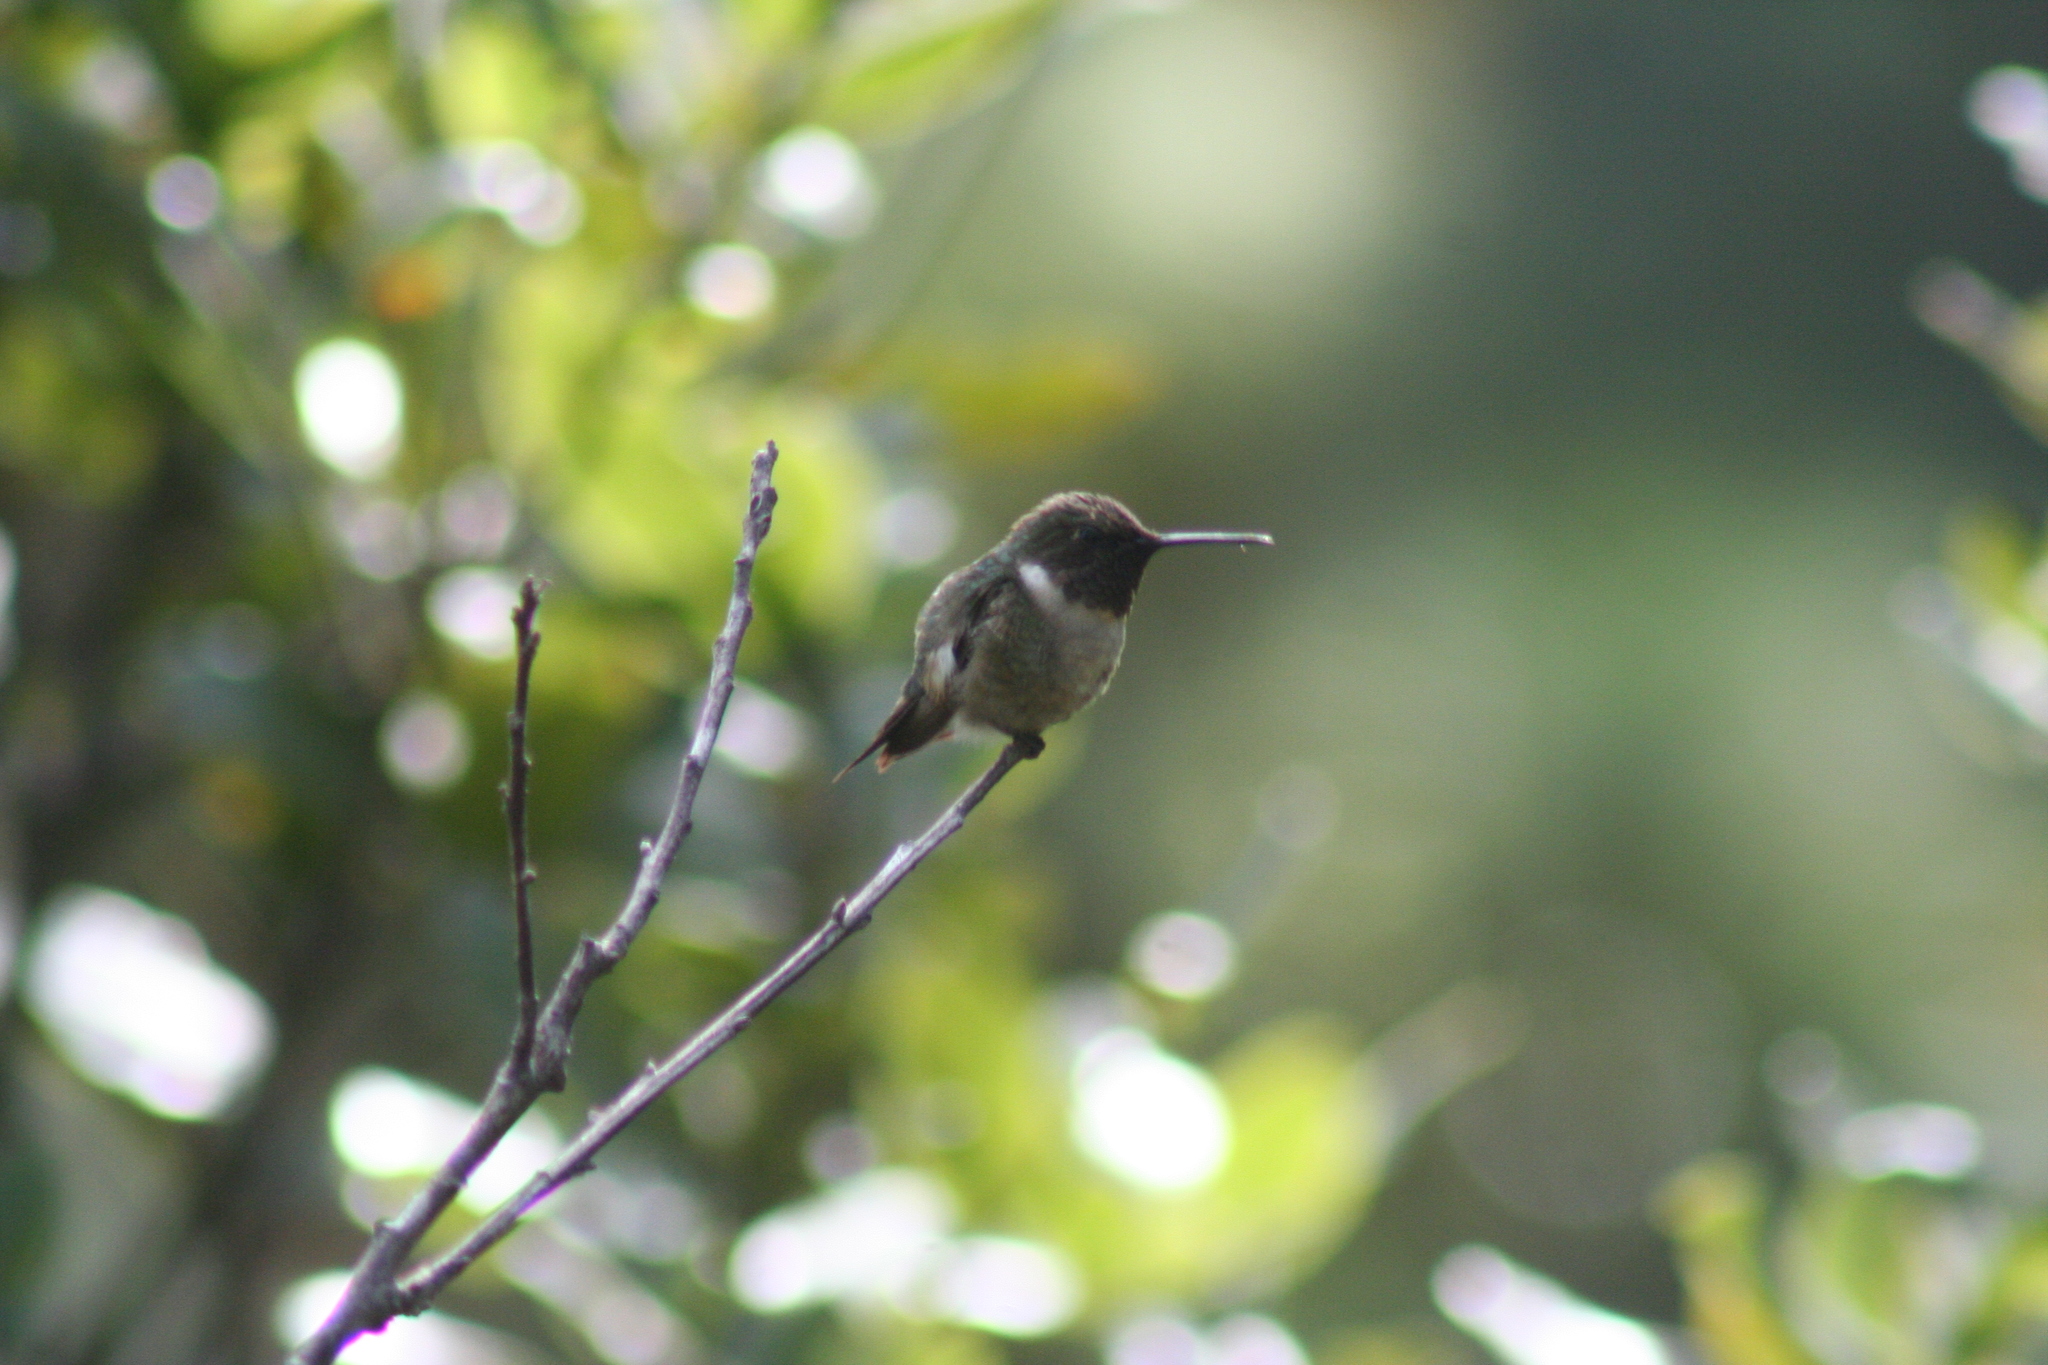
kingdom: Animalia
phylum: Chordata
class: Aves
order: Apodiformes
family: Trochilidae
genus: Selasphorus
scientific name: Selasphorus ellioti
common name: Wine-throated hummingbird
